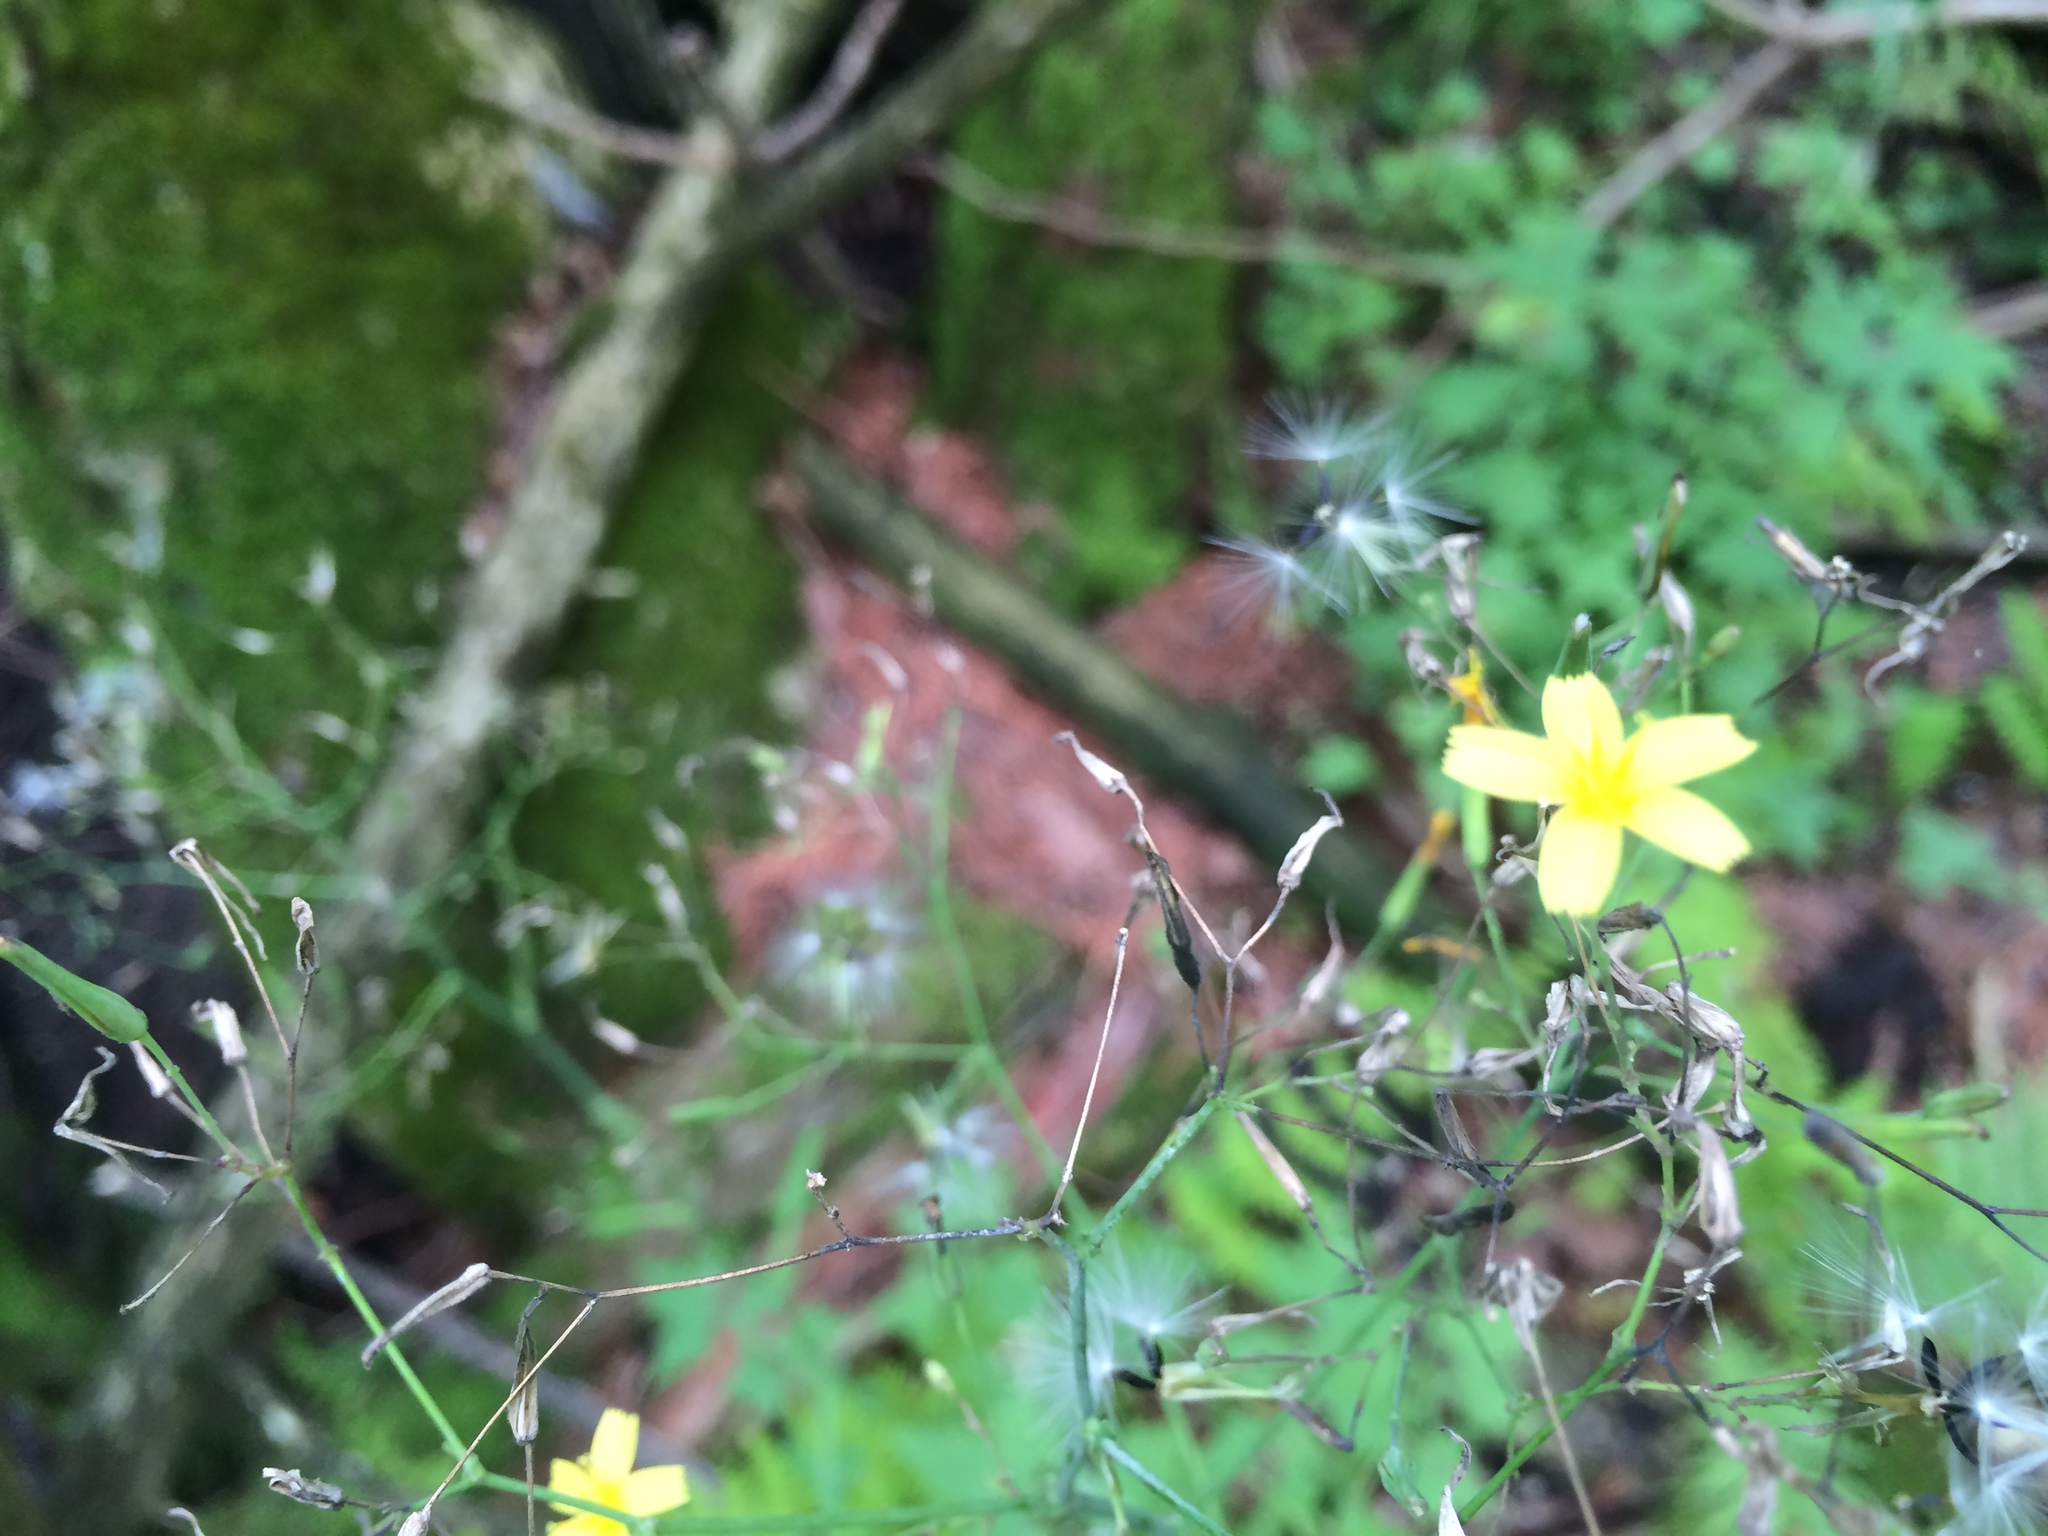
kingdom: Plantae
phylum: Tracheophyta
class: Magnoliopsida
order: Asterales
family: Asteraceae
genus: Mycelis
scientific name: Mycelis muralis
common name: Wall lettuce
